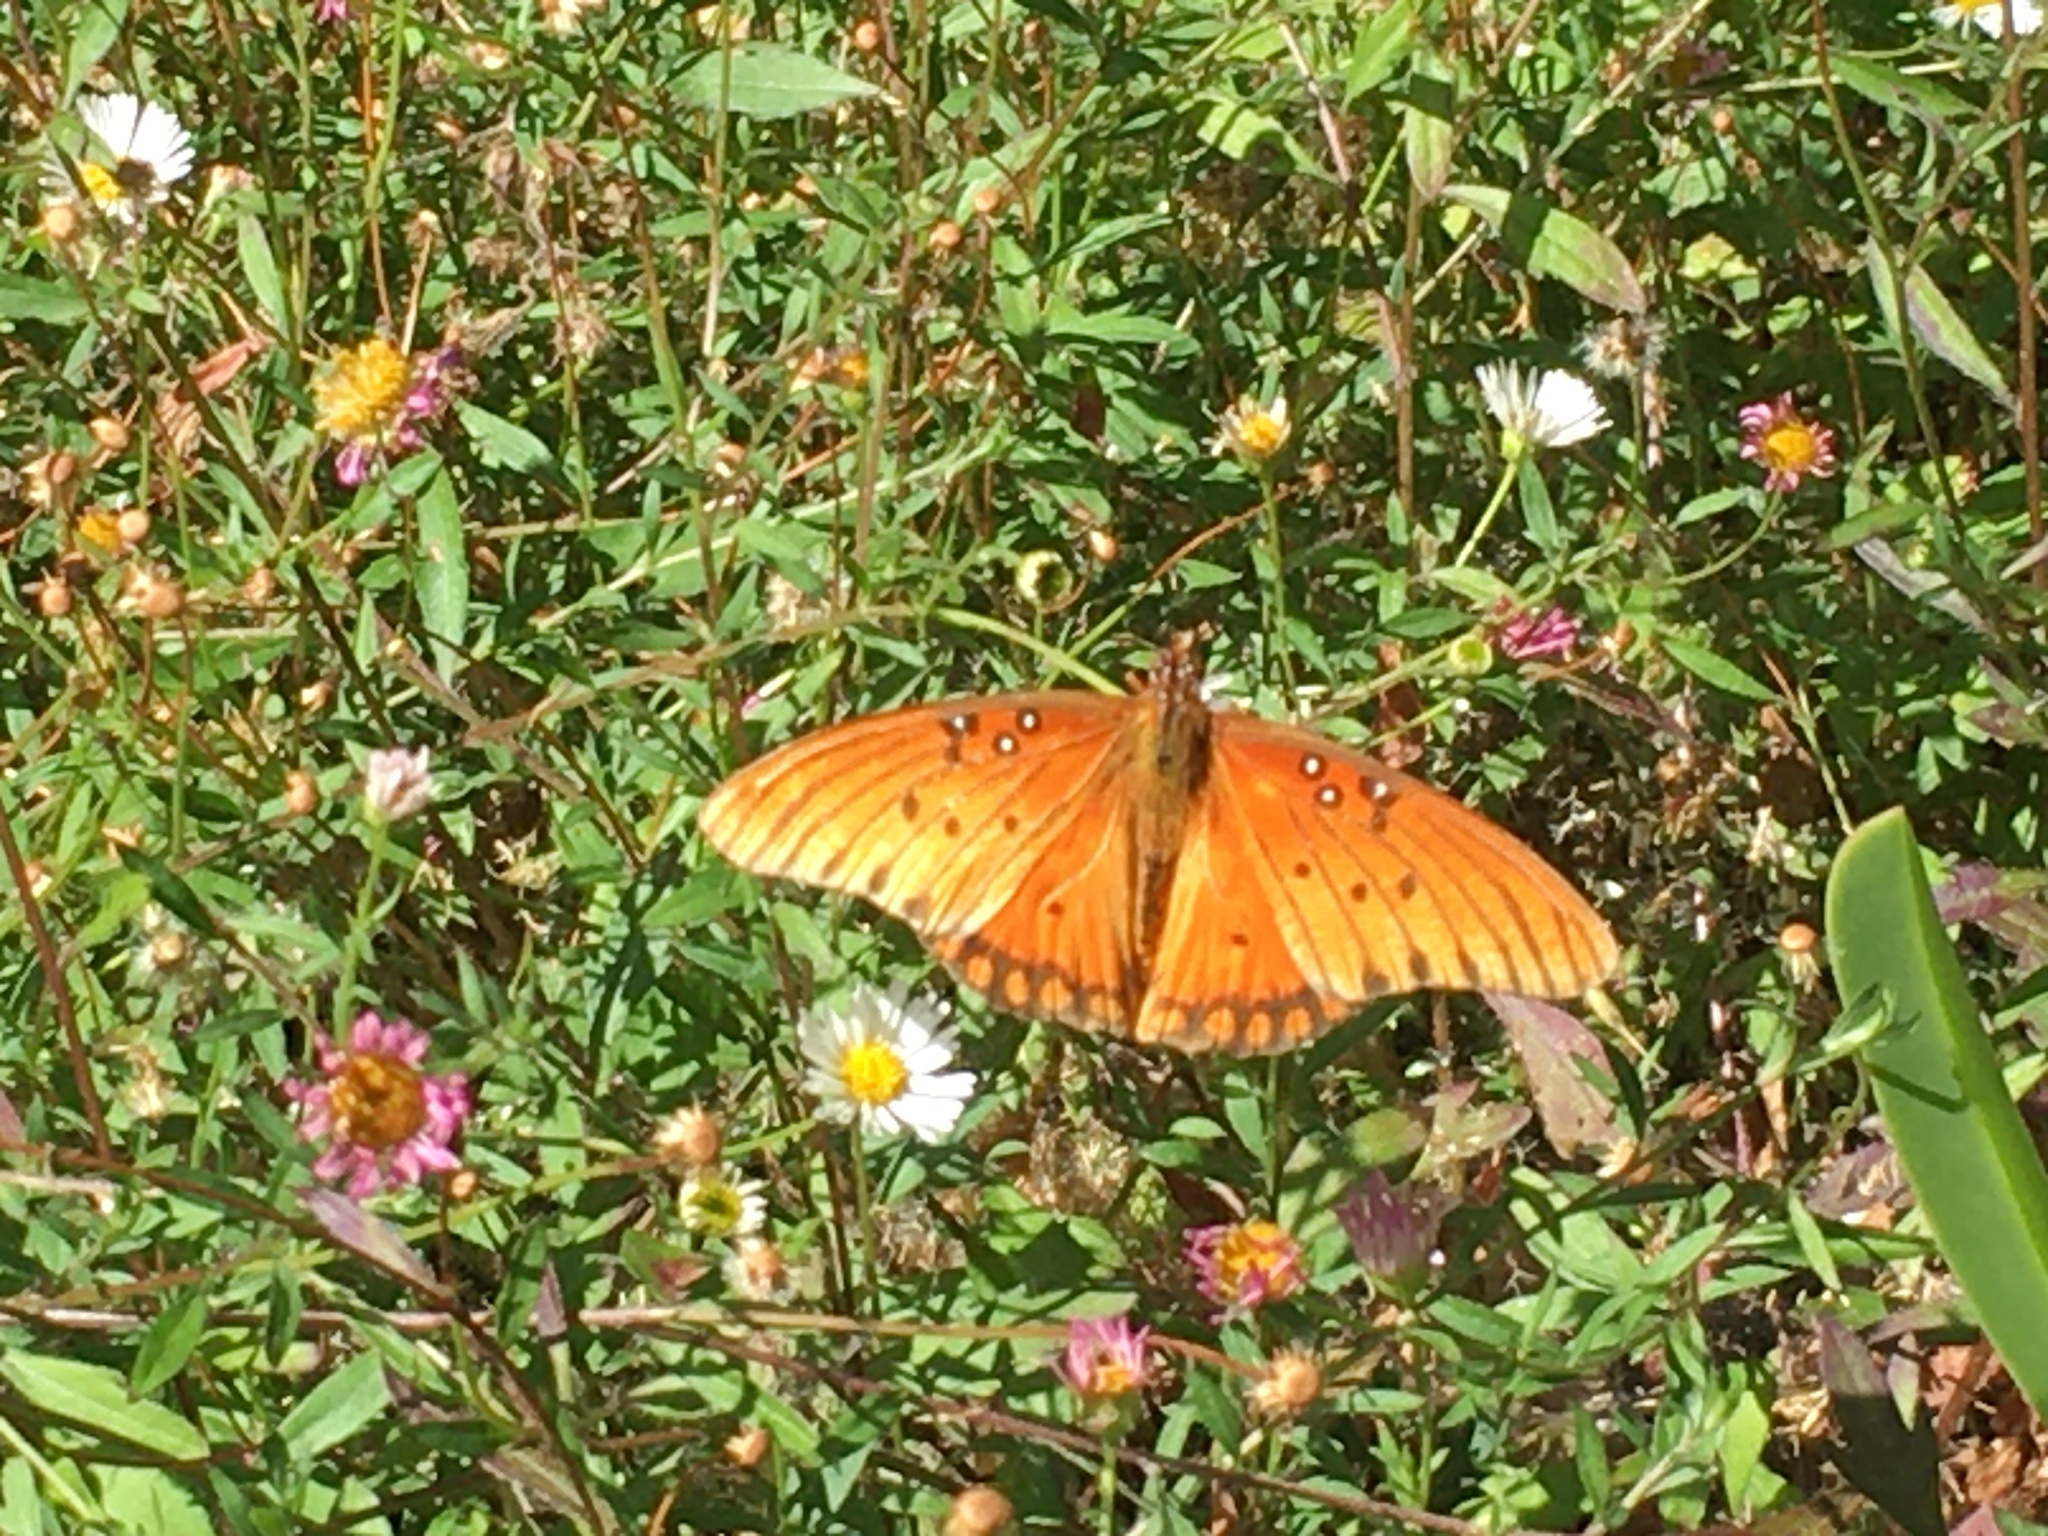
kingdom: Animalia
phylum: Arthropoda
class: Insecta
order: Lepidoptera
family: Nymphalidae
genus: Dione
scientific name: Dione vanillae
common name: Gulf fritillary
